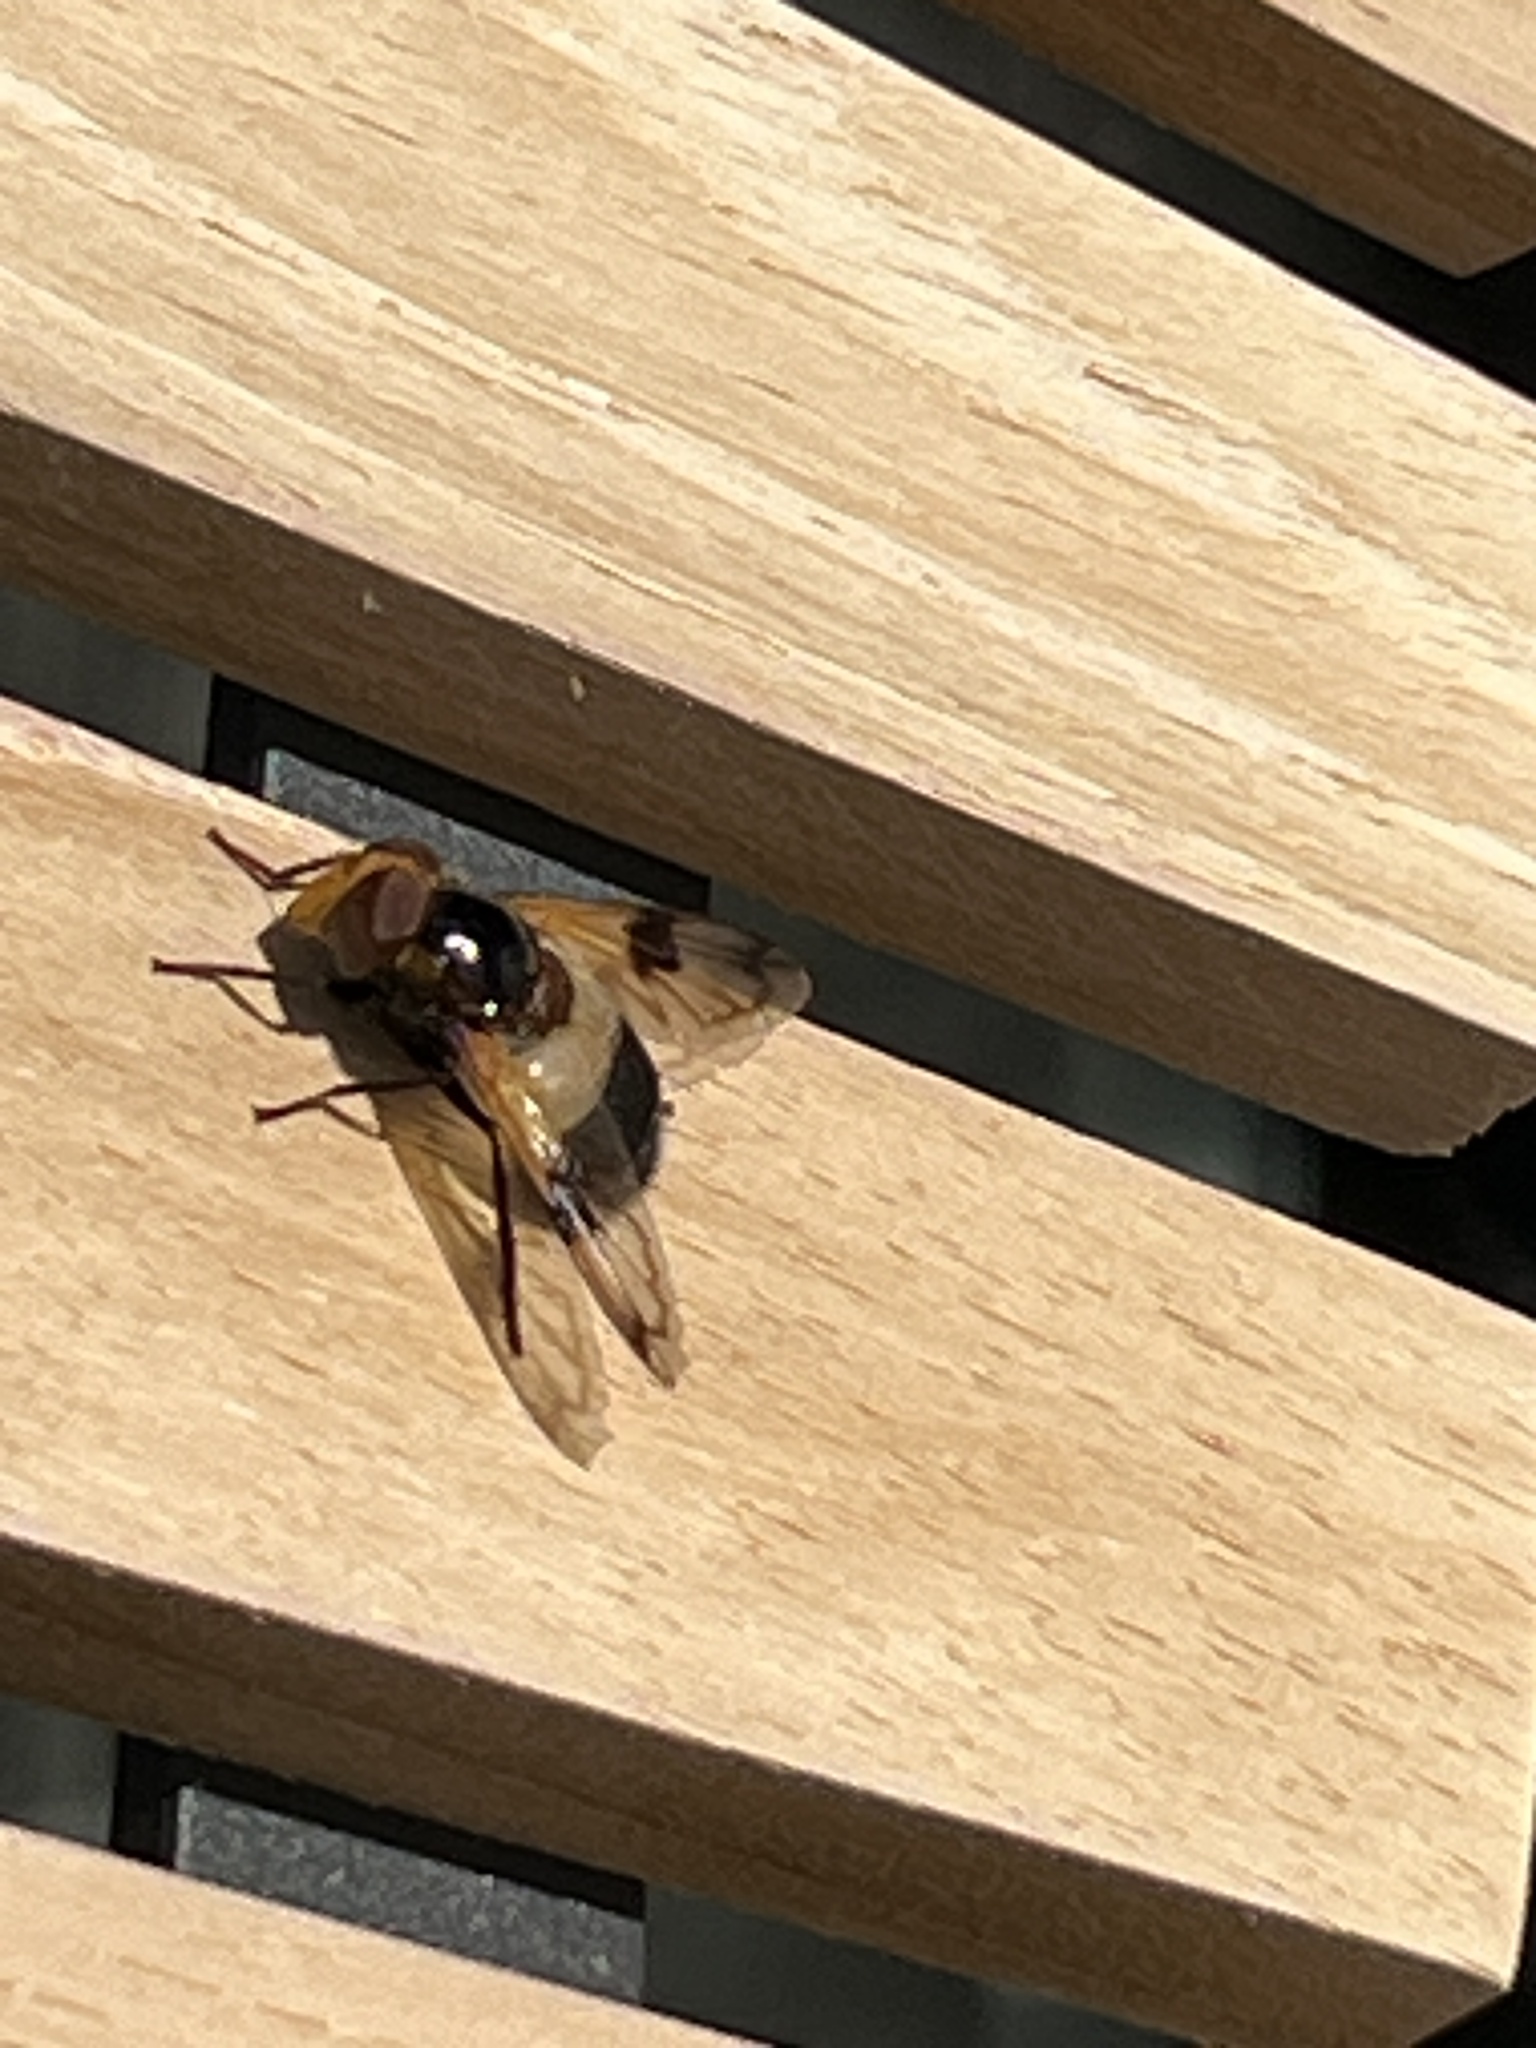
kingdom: Animalia
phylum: Arthropoda
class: Insecta
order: Diptera
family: Syrphidae
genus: Volucella
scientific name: Volucella pellucens
